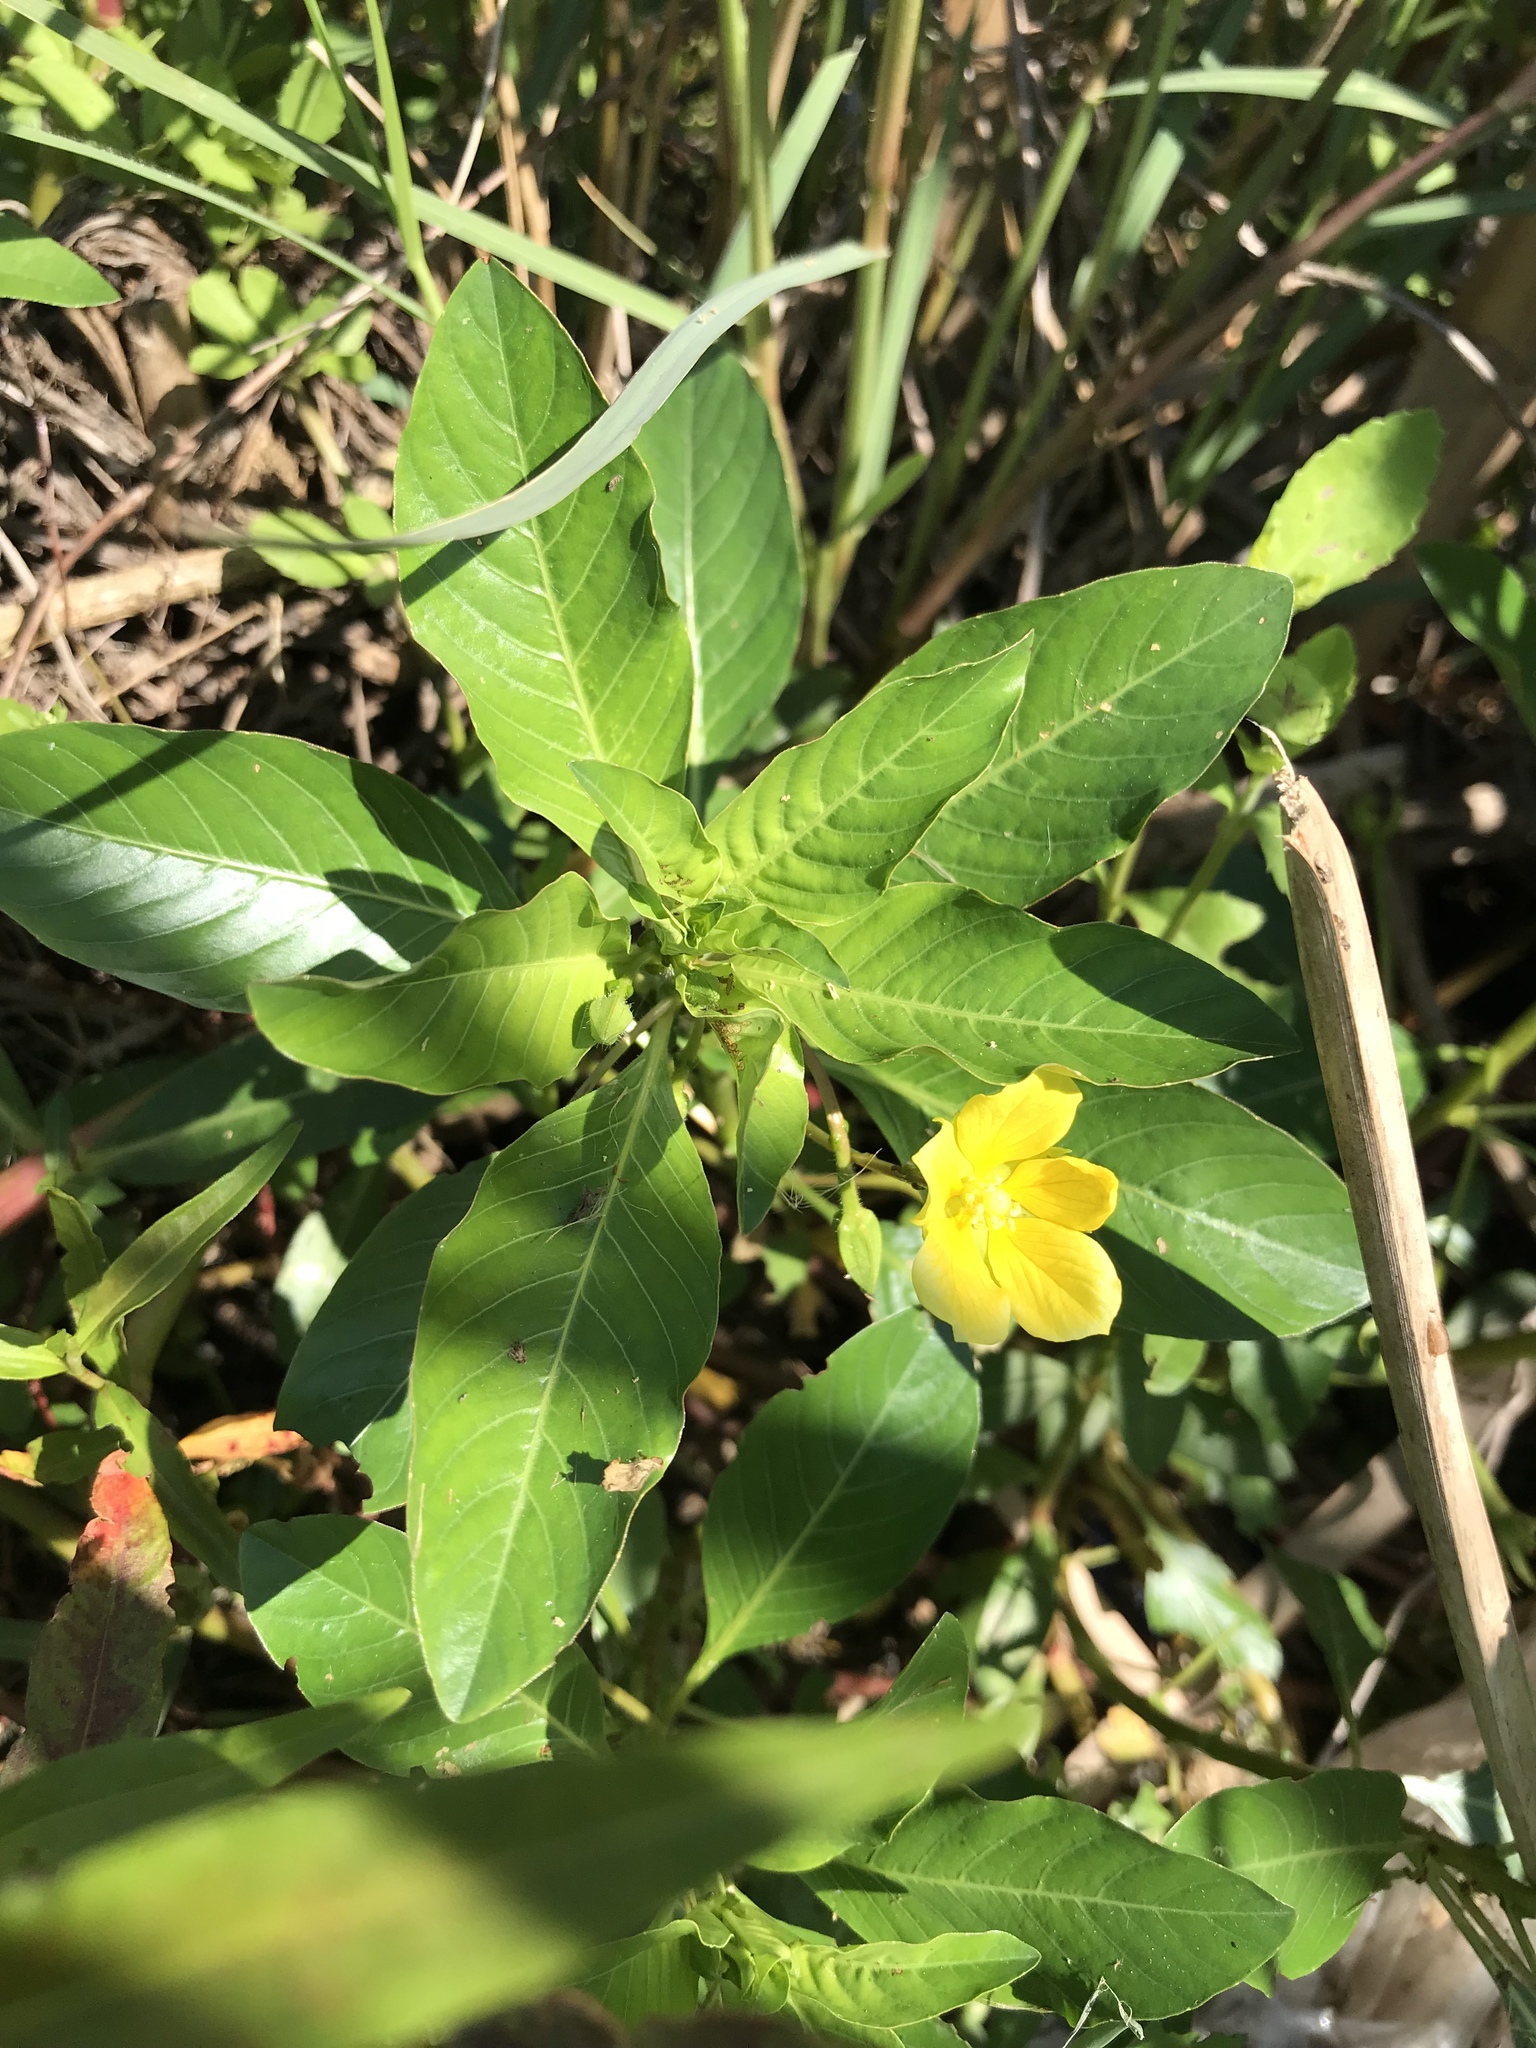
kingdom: Plantae
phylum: Tracheophyta
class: Magnoliopsida
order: Myrtales
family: Onagraceae
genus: Ludwigia
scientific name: Ludwigia peploides
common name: Floating primrose-willow
